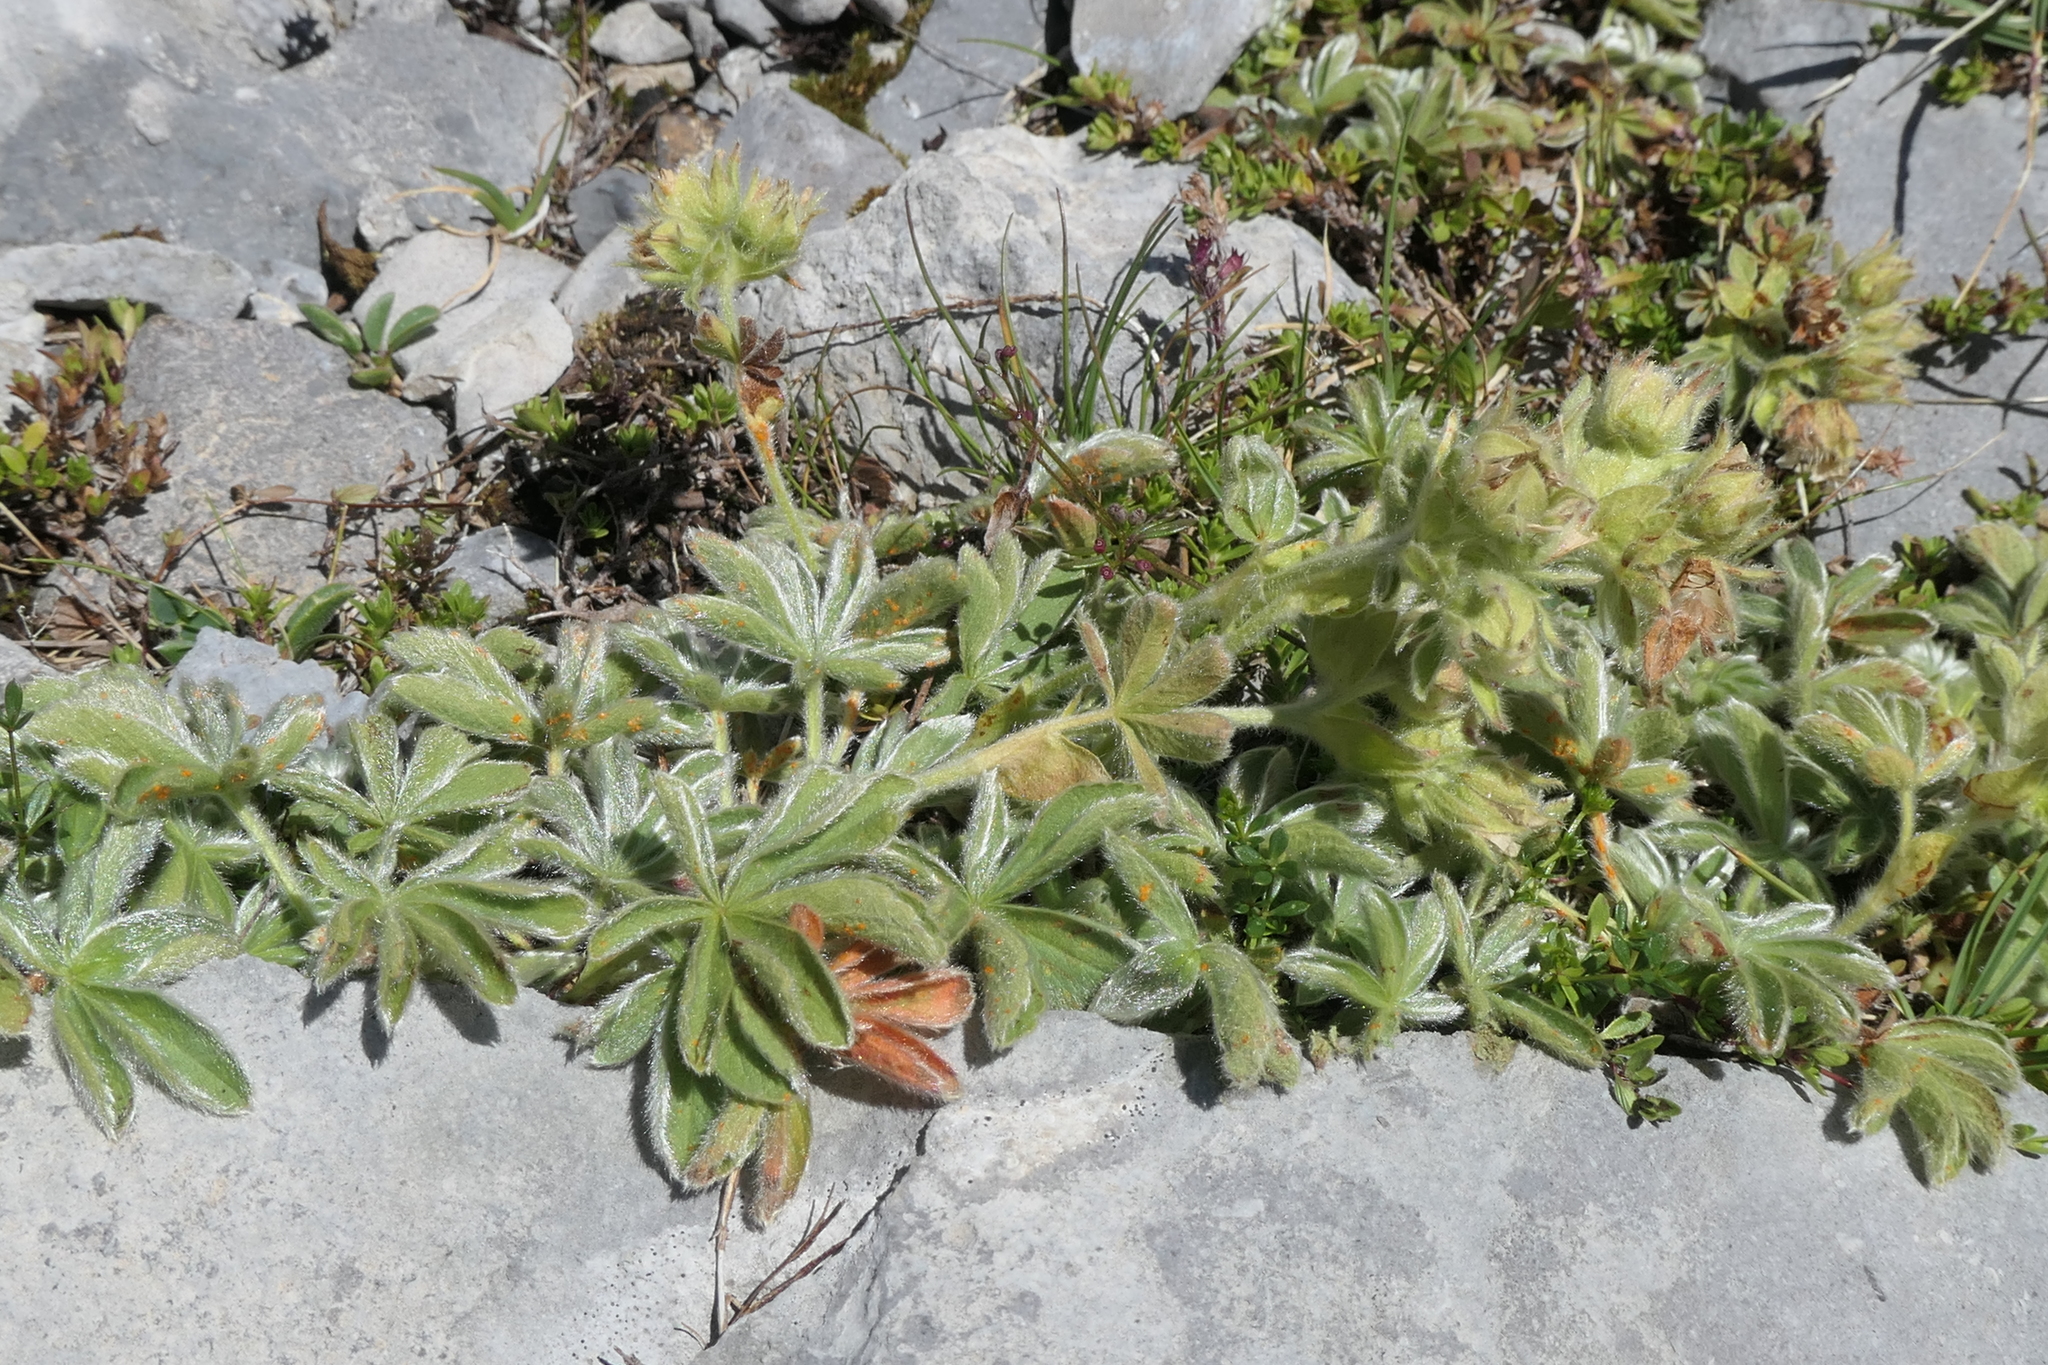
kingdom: Plantae
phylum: Tracheophyta
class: Magnoliopsida
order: Rosales
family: Rosaceae
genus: Potentilla
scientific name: Potentilla nivalis
